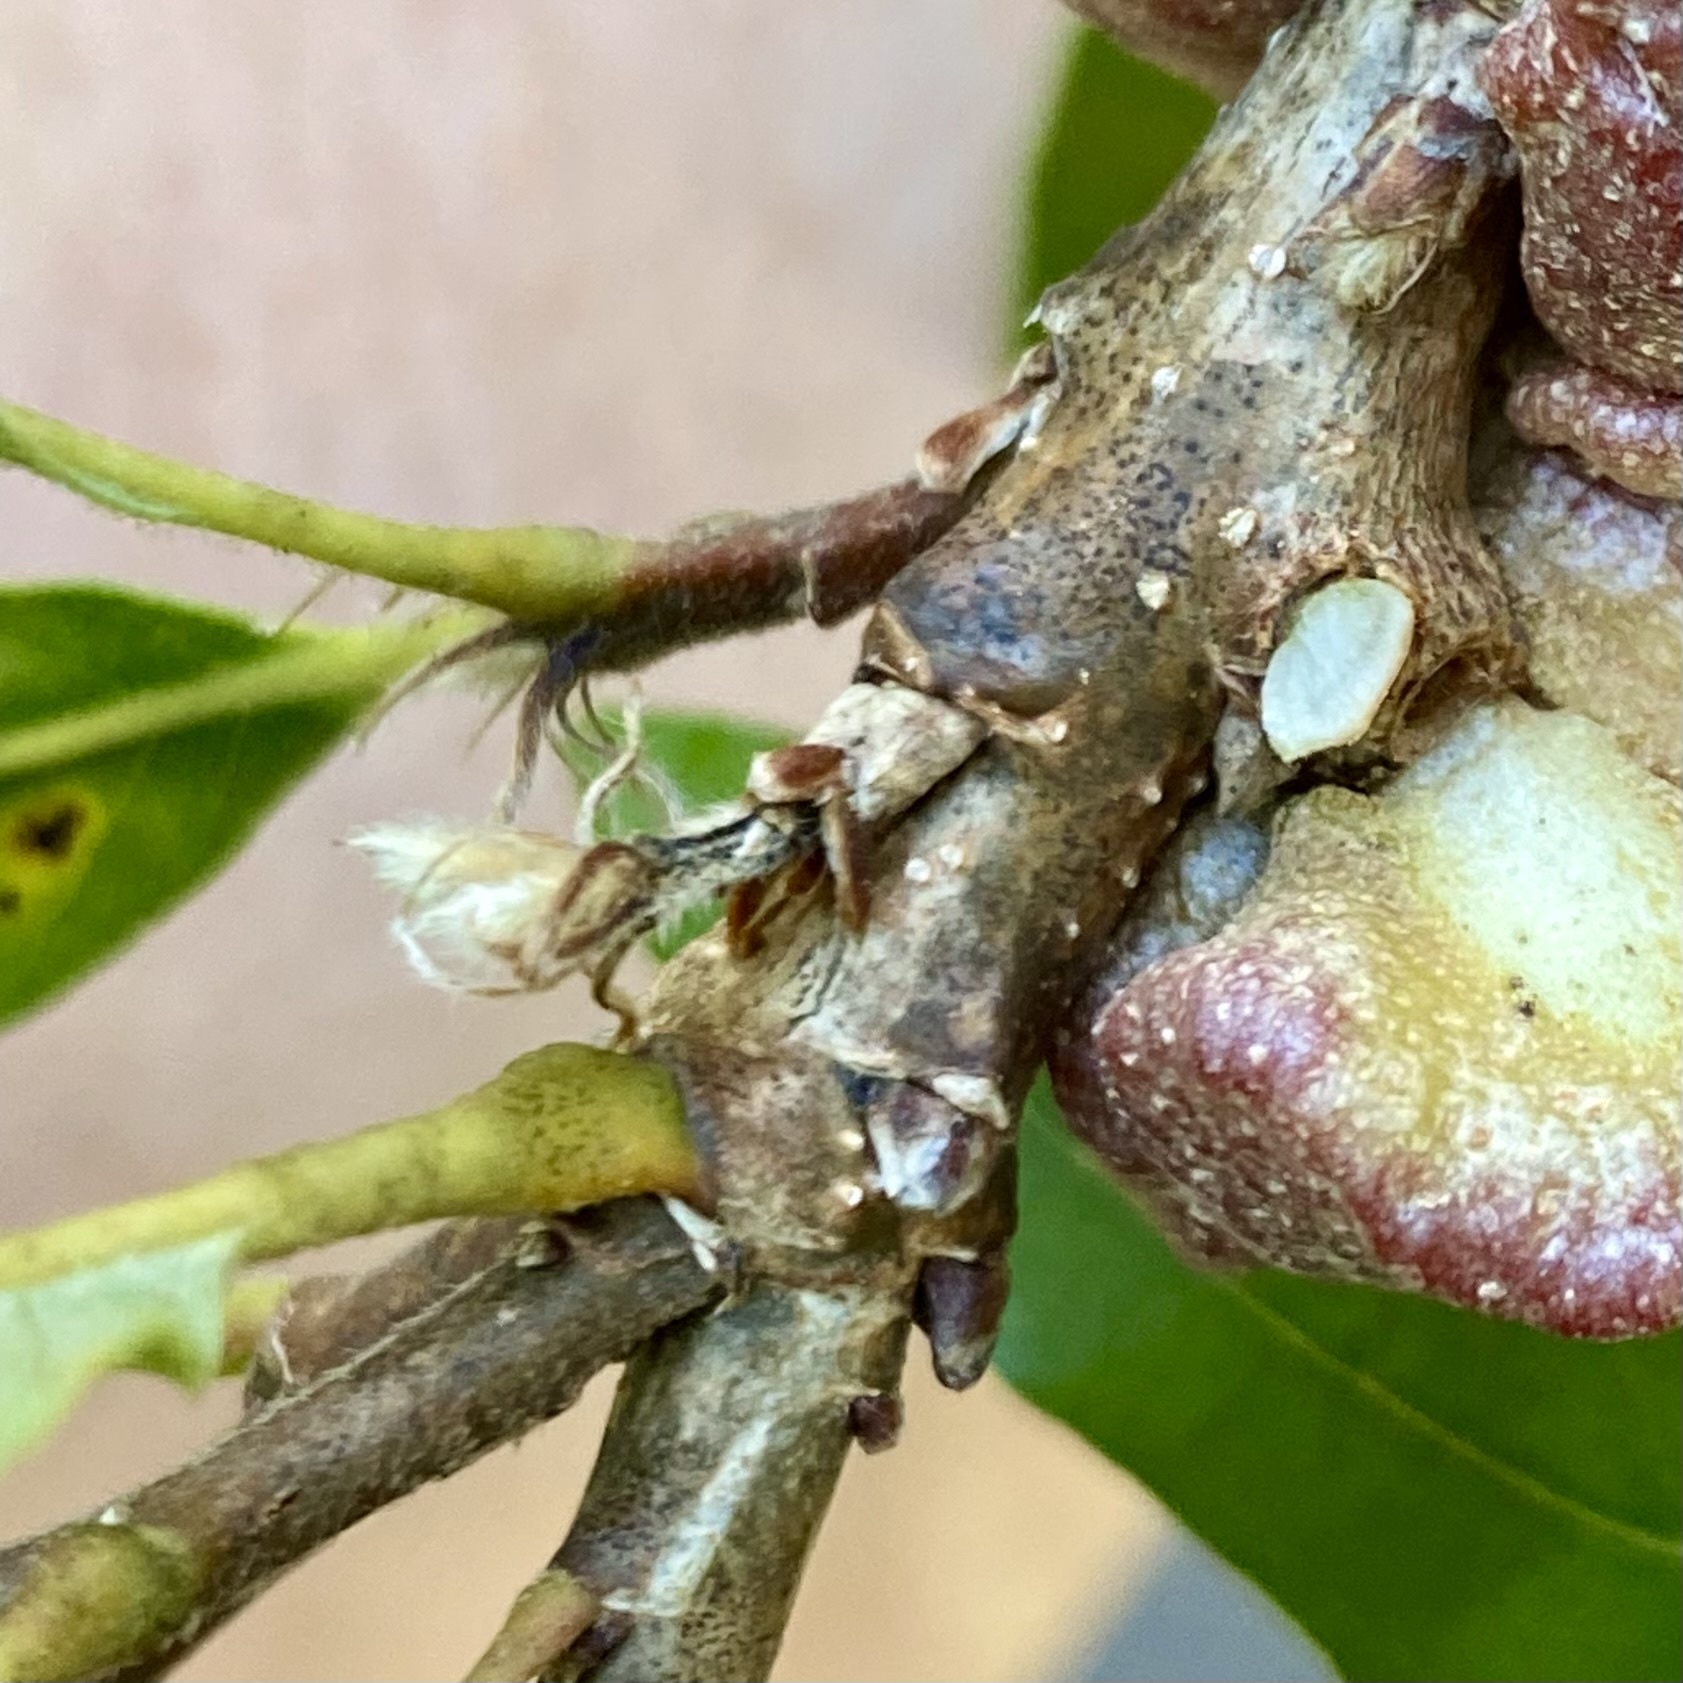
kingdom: Animalia
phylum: Arthropoda
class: Insecta
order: Hymenoptera
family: Cynipidae
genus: Andricus
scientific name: Andricus
